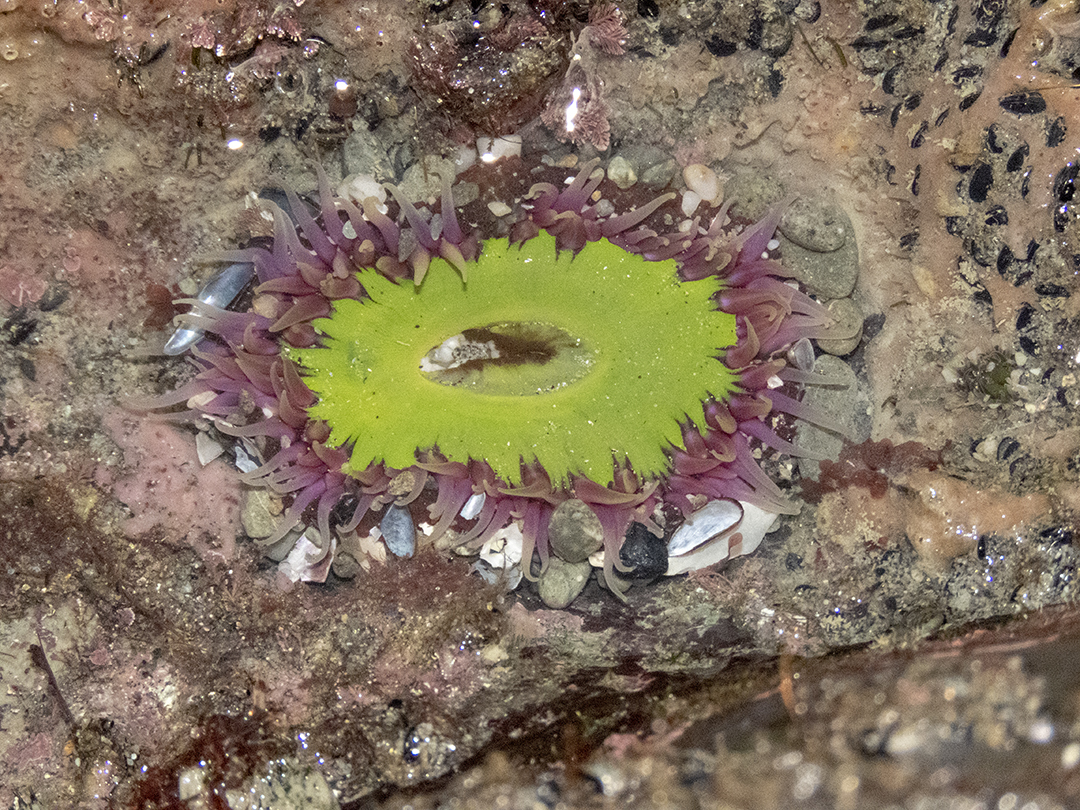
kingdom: Animalia
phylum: Cnidaria
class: Anthozoa
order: Actiniaria
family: Actiniidae
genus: Oulactis
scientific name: Oulactis magna
